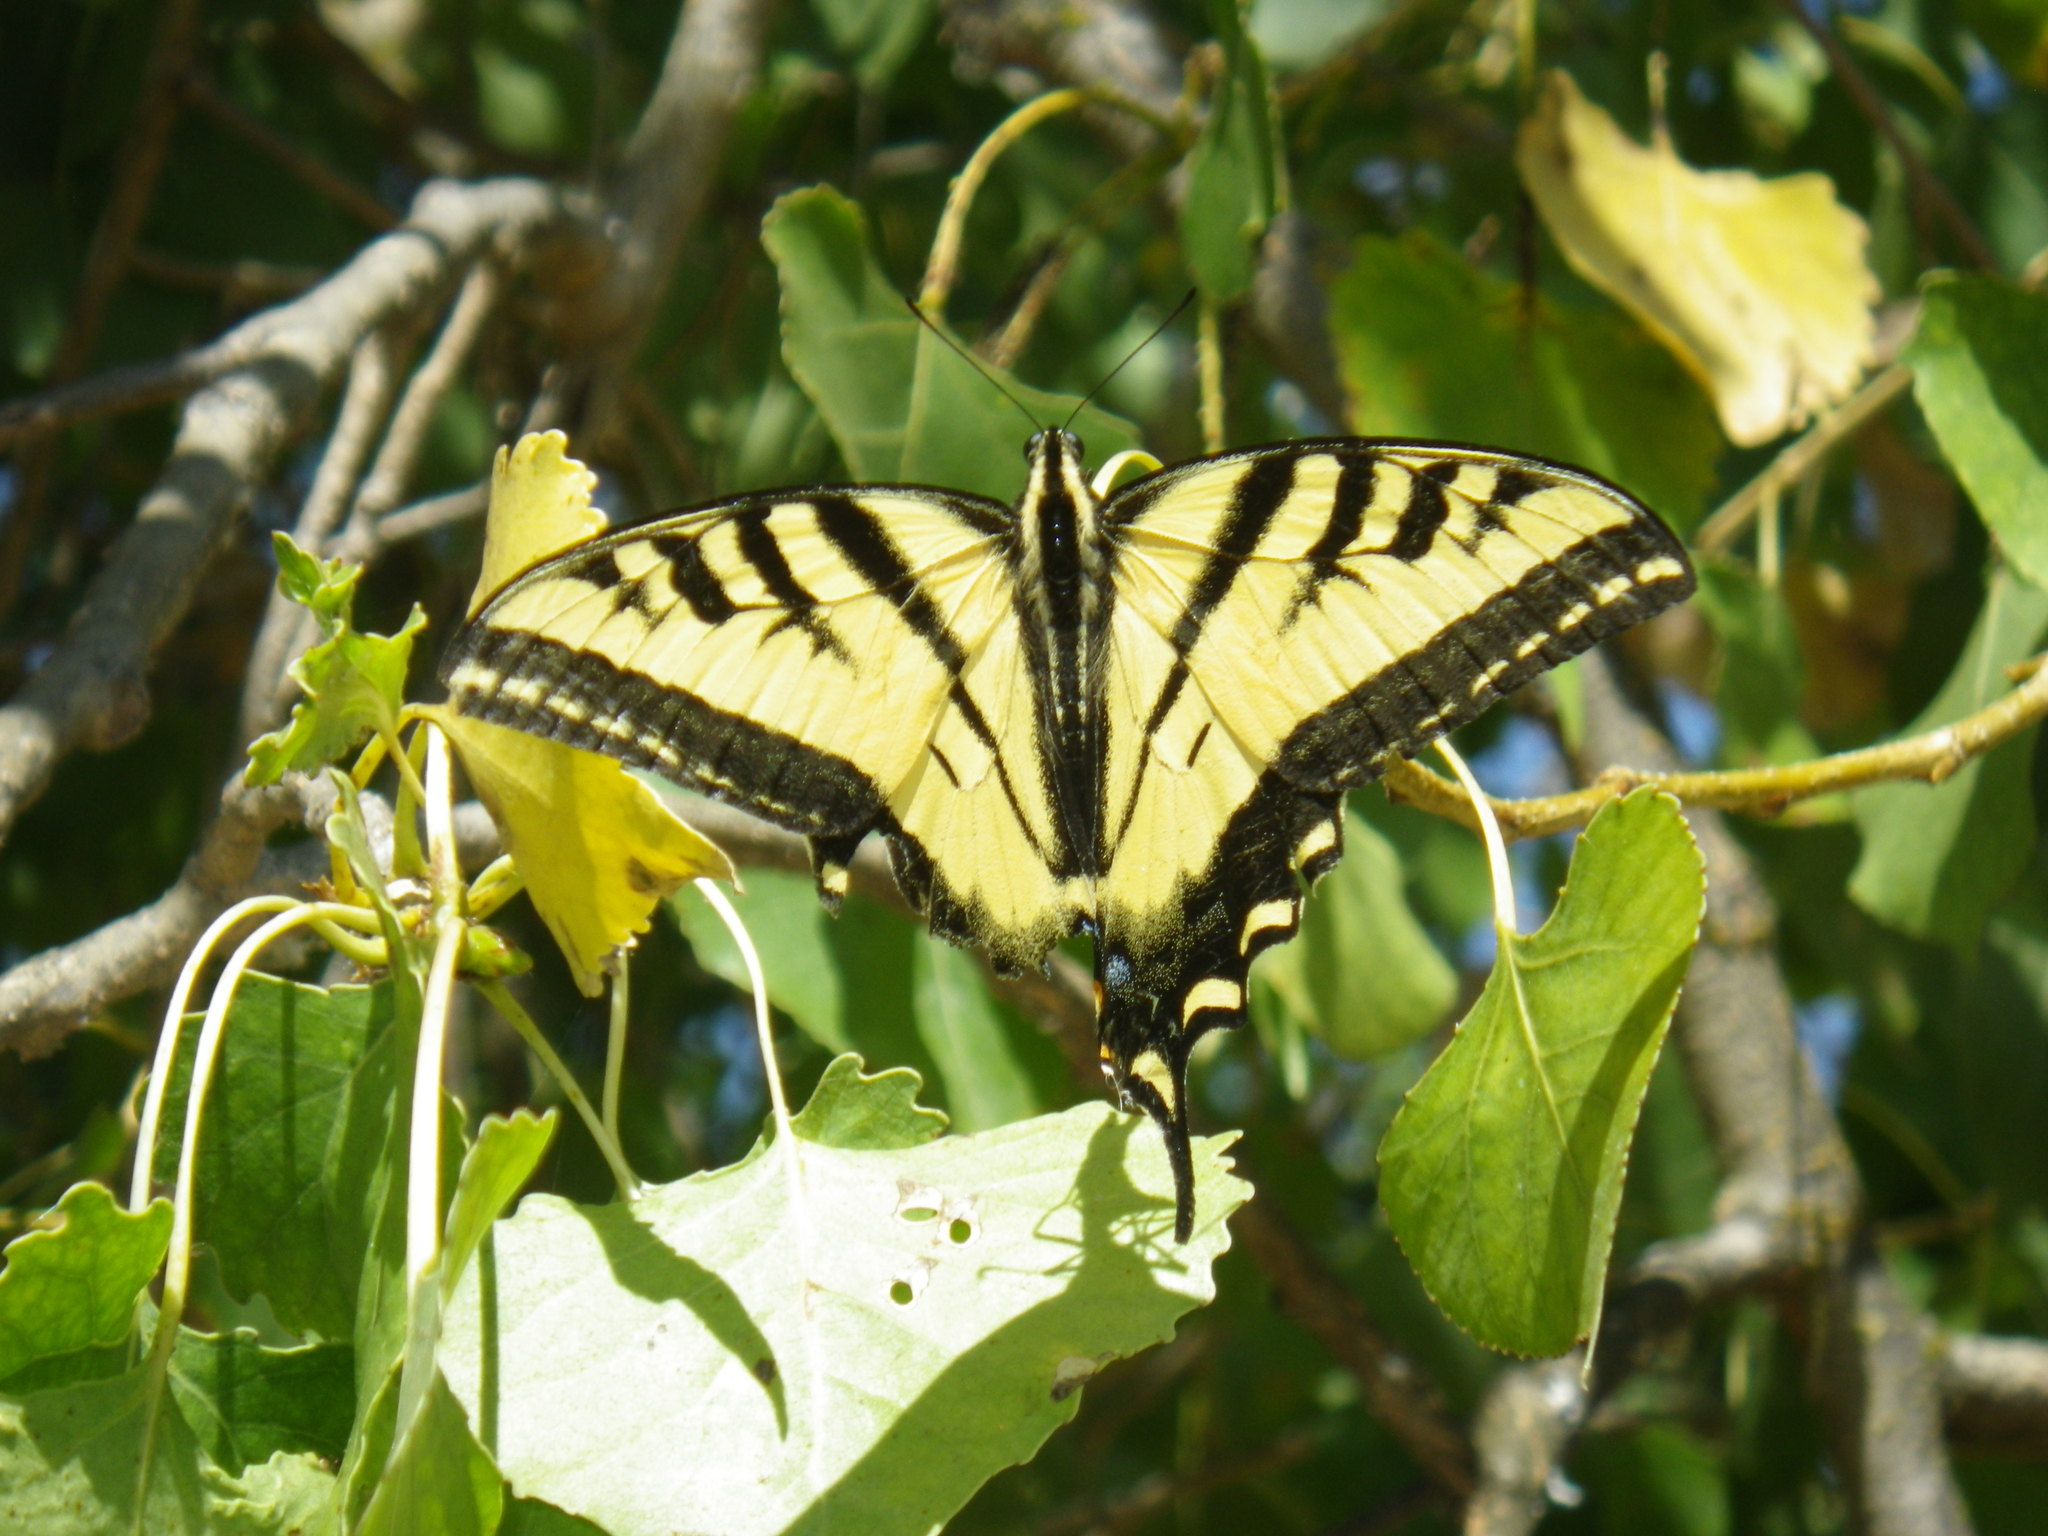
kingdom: Animalia
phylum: Arthropoda
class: Insecta
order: Lepidoptera
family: Papilionidae
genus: Papilio
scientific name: Papilio rutulus
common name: Western tiger swallowtail
